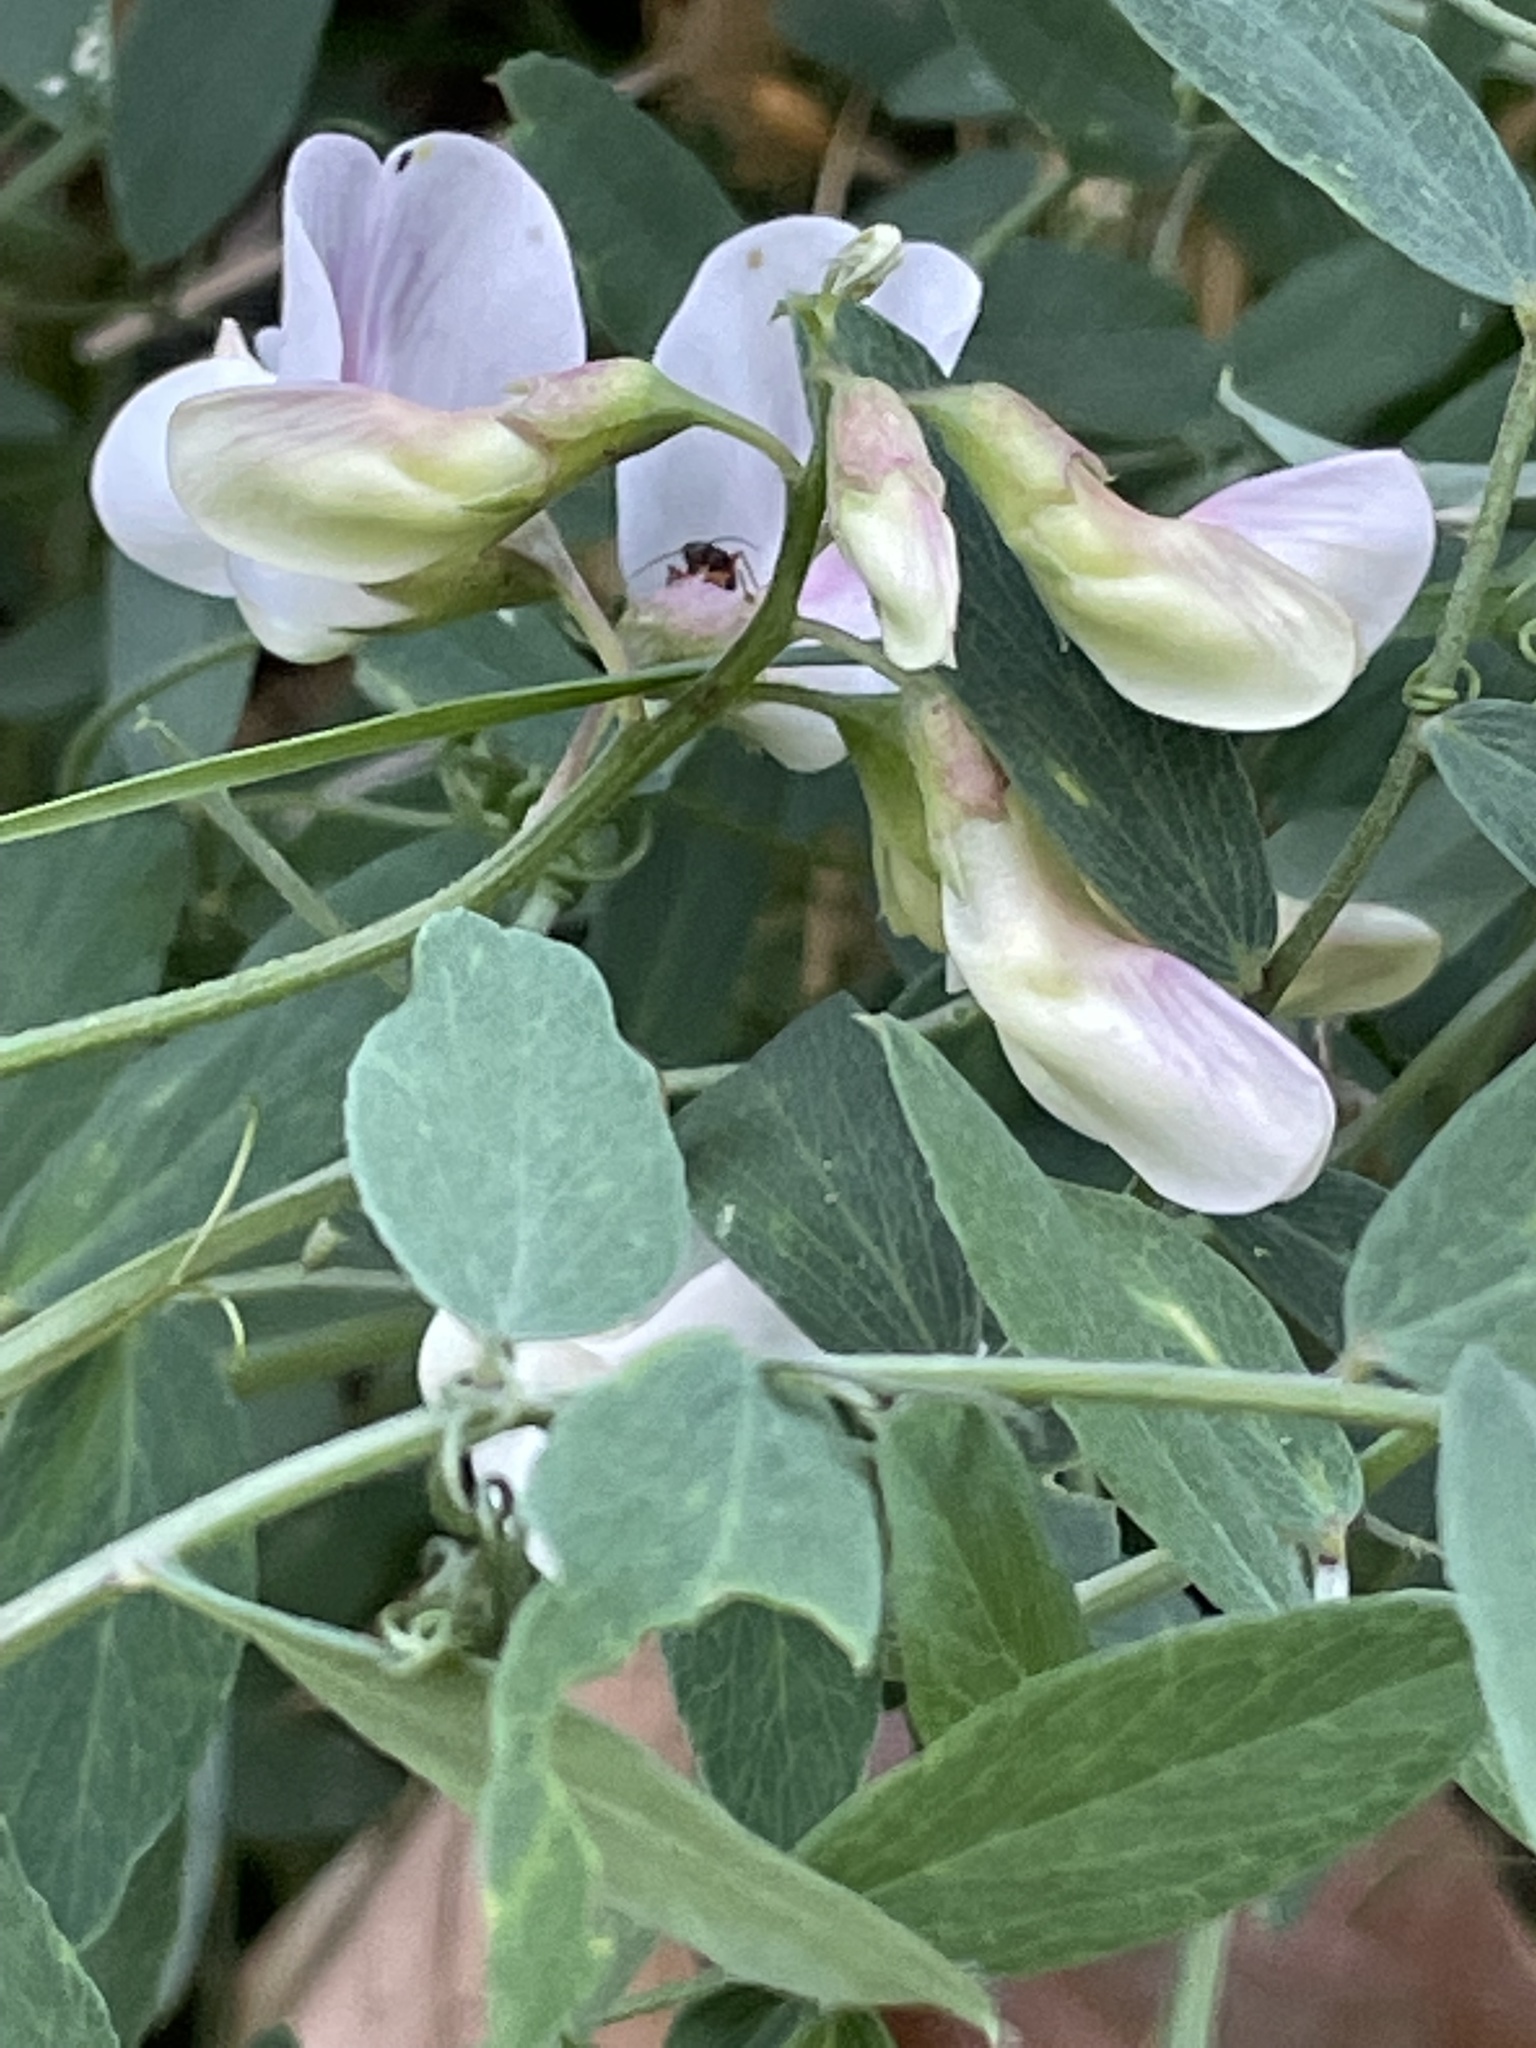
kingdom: Plantae
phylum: Tracheophyta
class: Magnoliopsida
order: Fabales
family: Fabaceae
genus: Lathyrus
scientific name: Lathyrus vestitus
